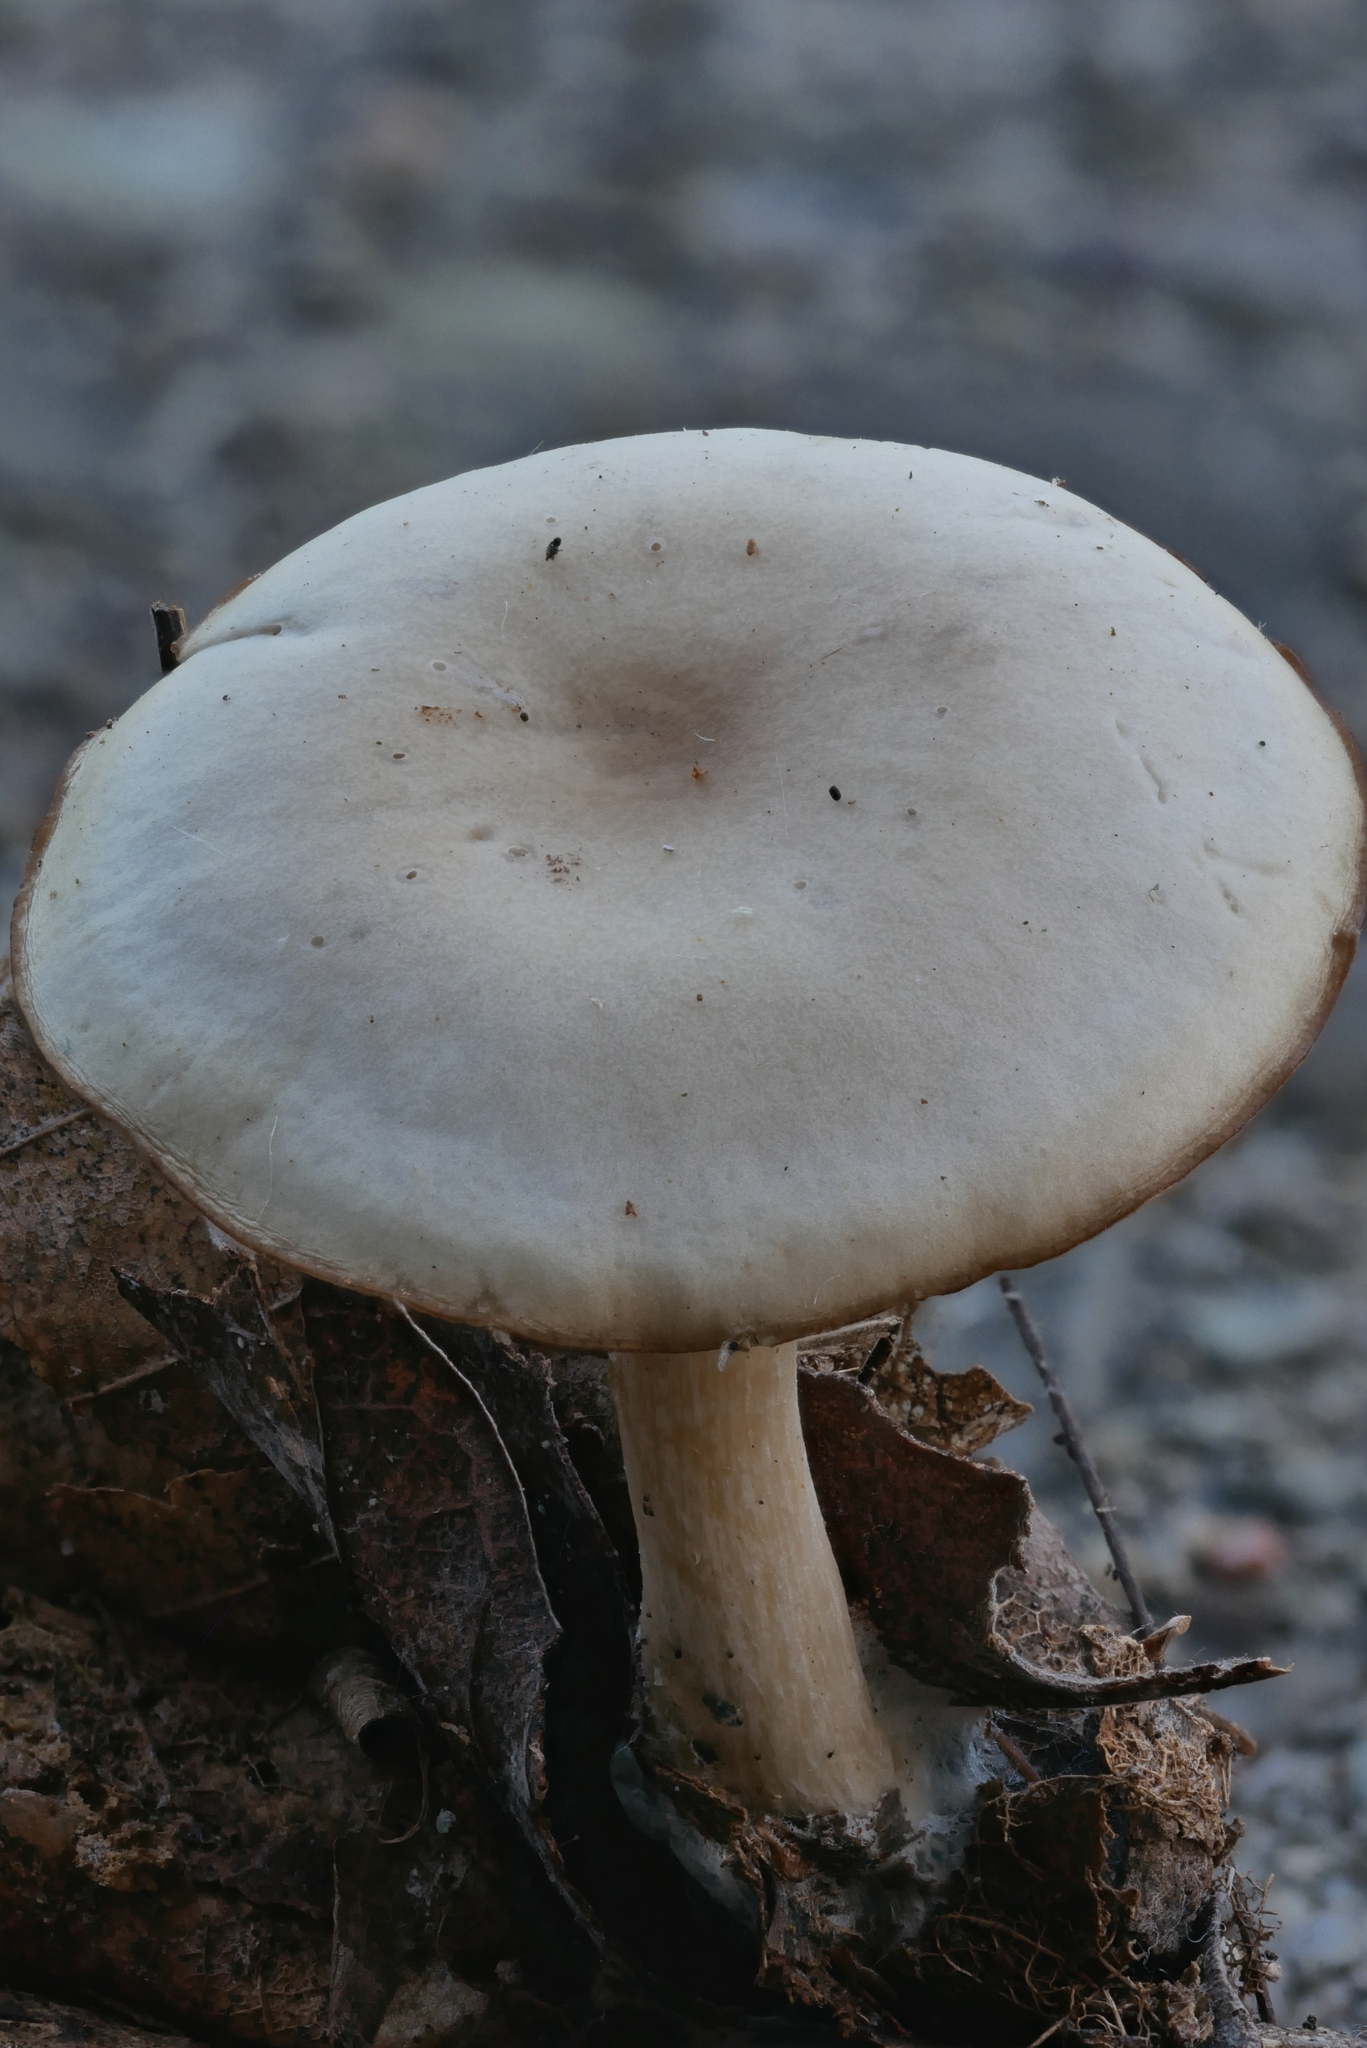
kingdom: Fungi
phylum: Basidiomycota
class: Agaricomycetes
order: Agaricales
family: Tricholomataceae
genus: Clitocybe
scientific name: Clitocybe diatreta
